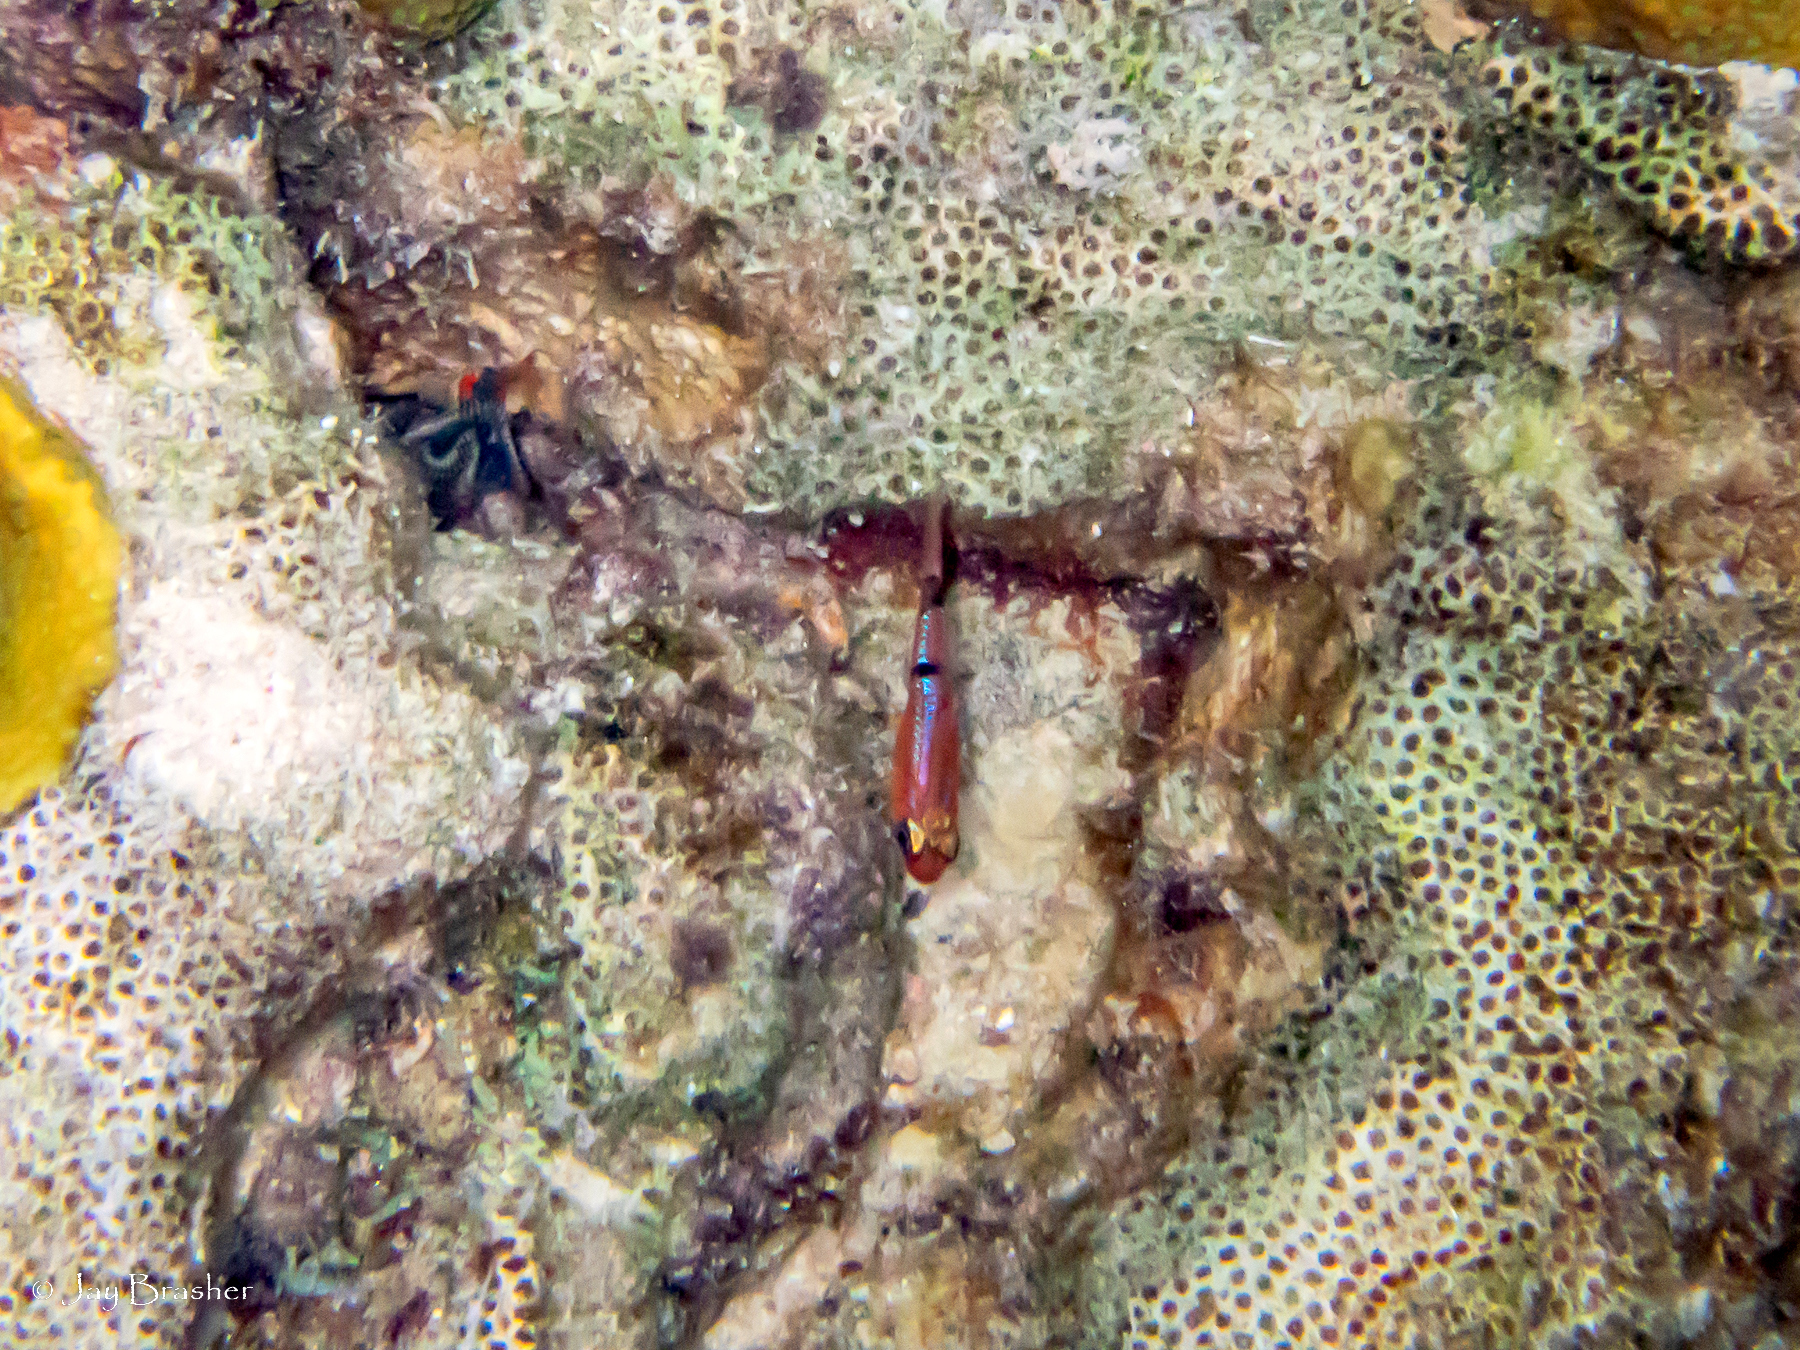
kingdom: Animalia
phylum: Chordata
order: Perciformes
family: Apogonidae
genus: Apogon
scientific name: Apogon townsendi
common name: Belted cardinalfish
